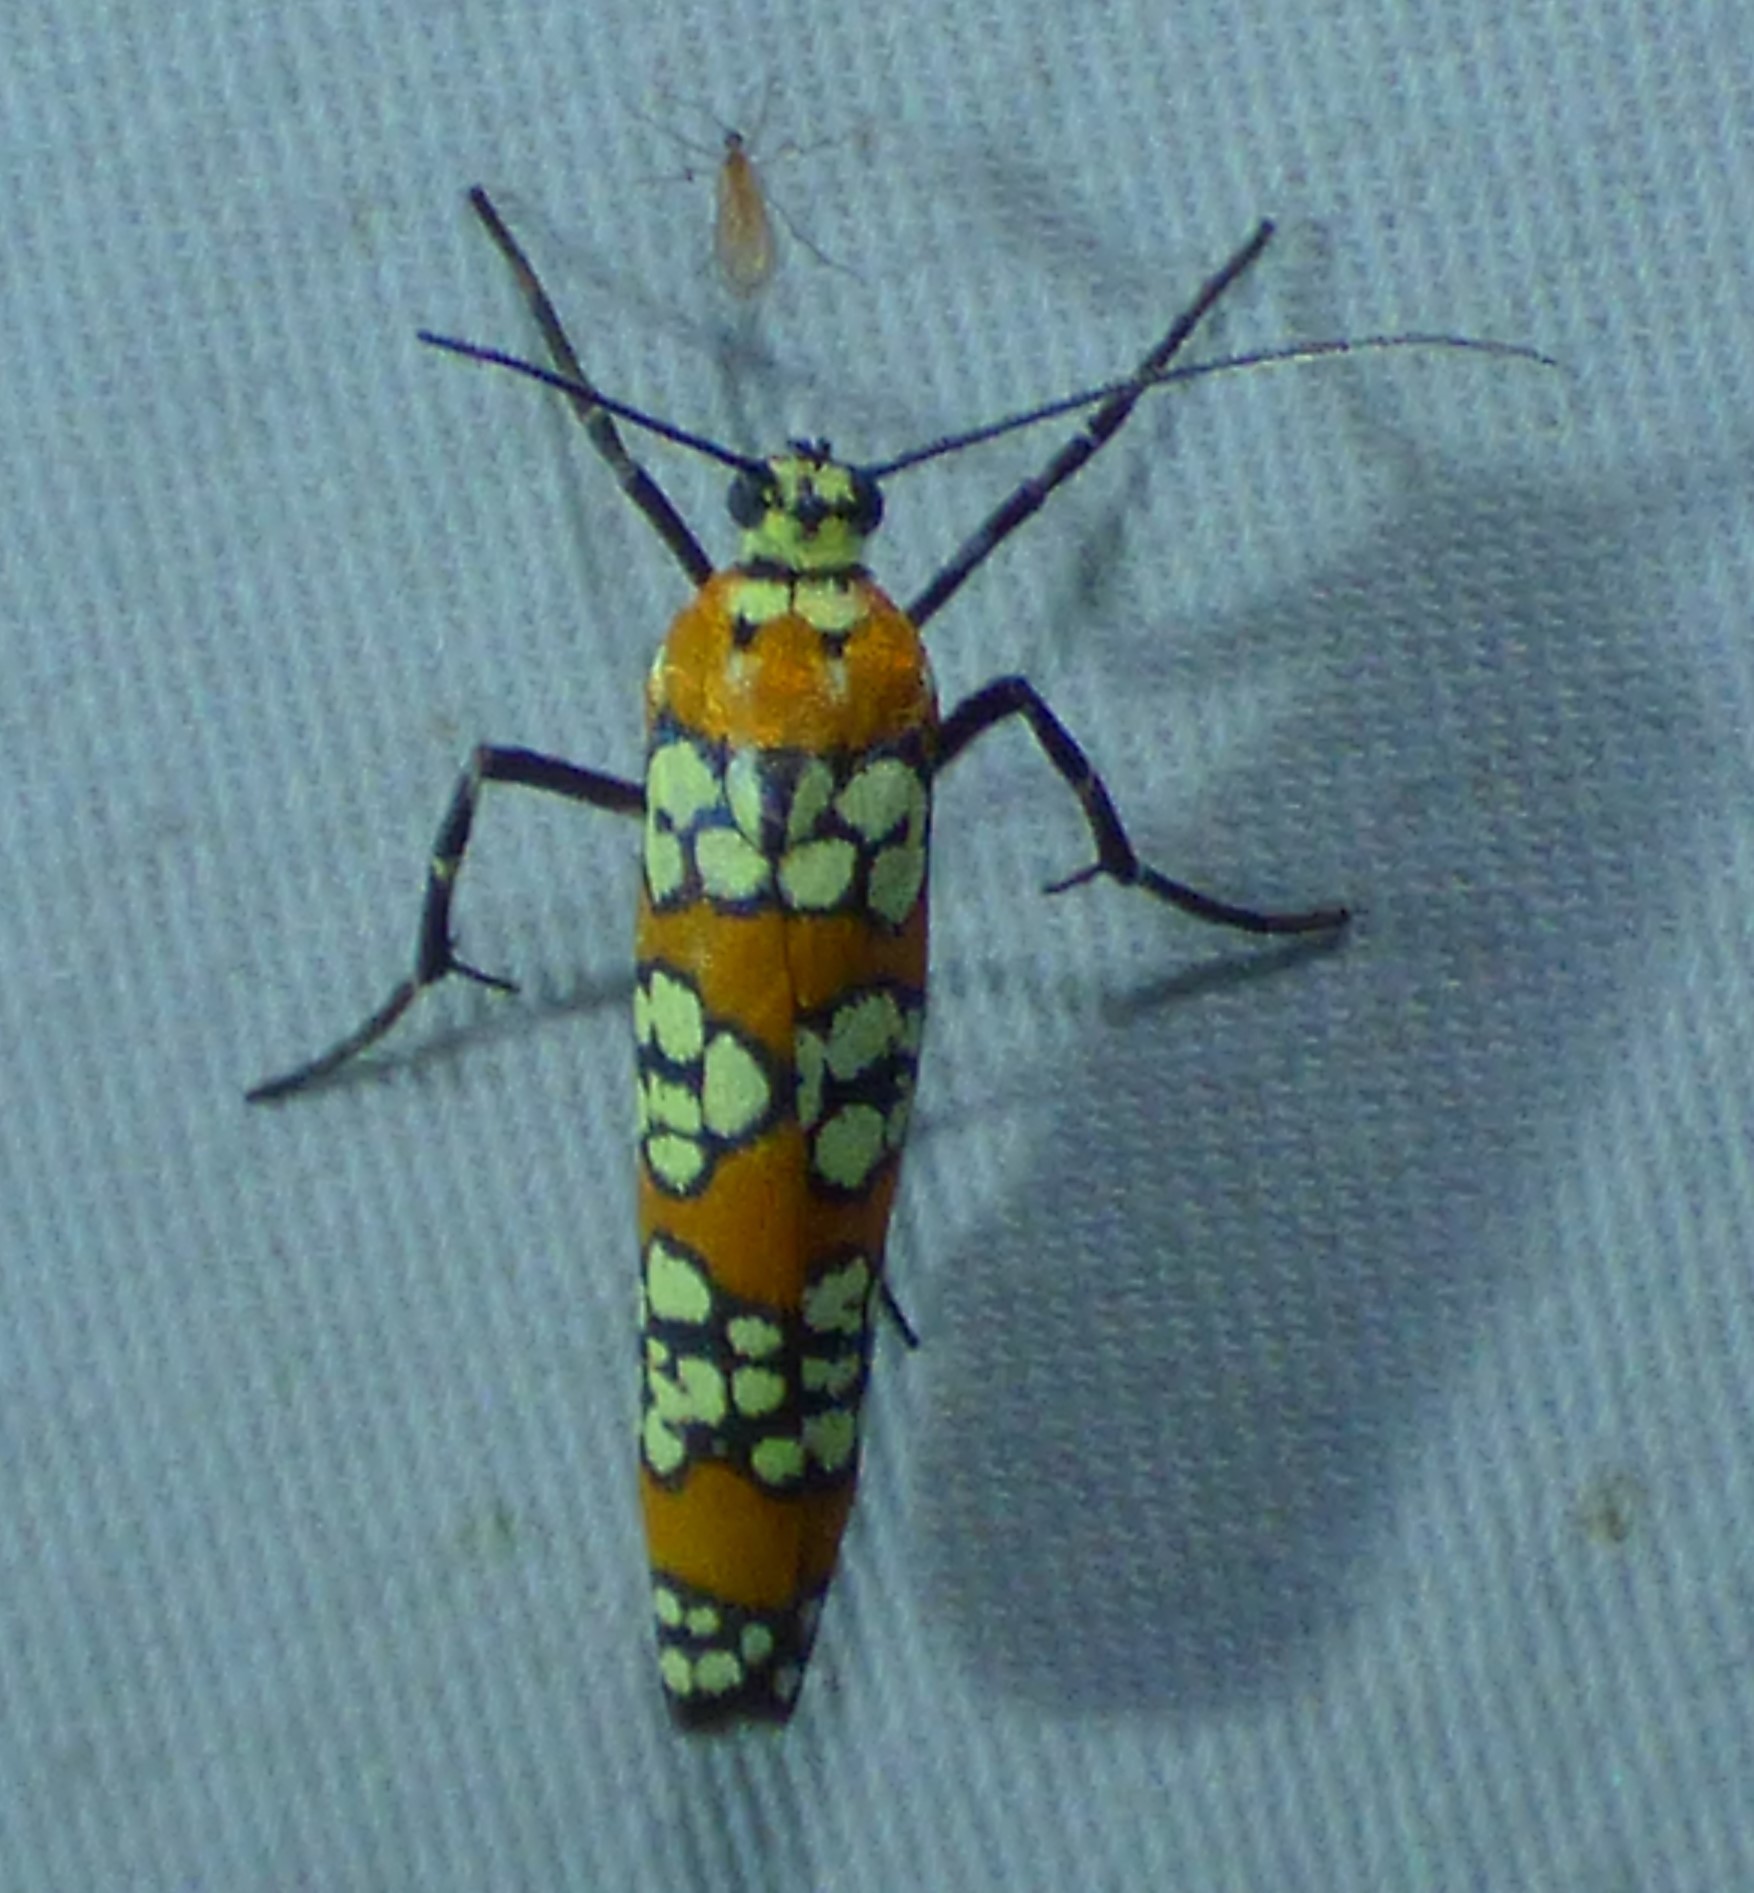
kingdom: Animalia
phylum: Arthropoda
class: Insecta
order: Lepidoptera
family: Attevidae
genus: Atteva
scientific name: Atteva punctella
